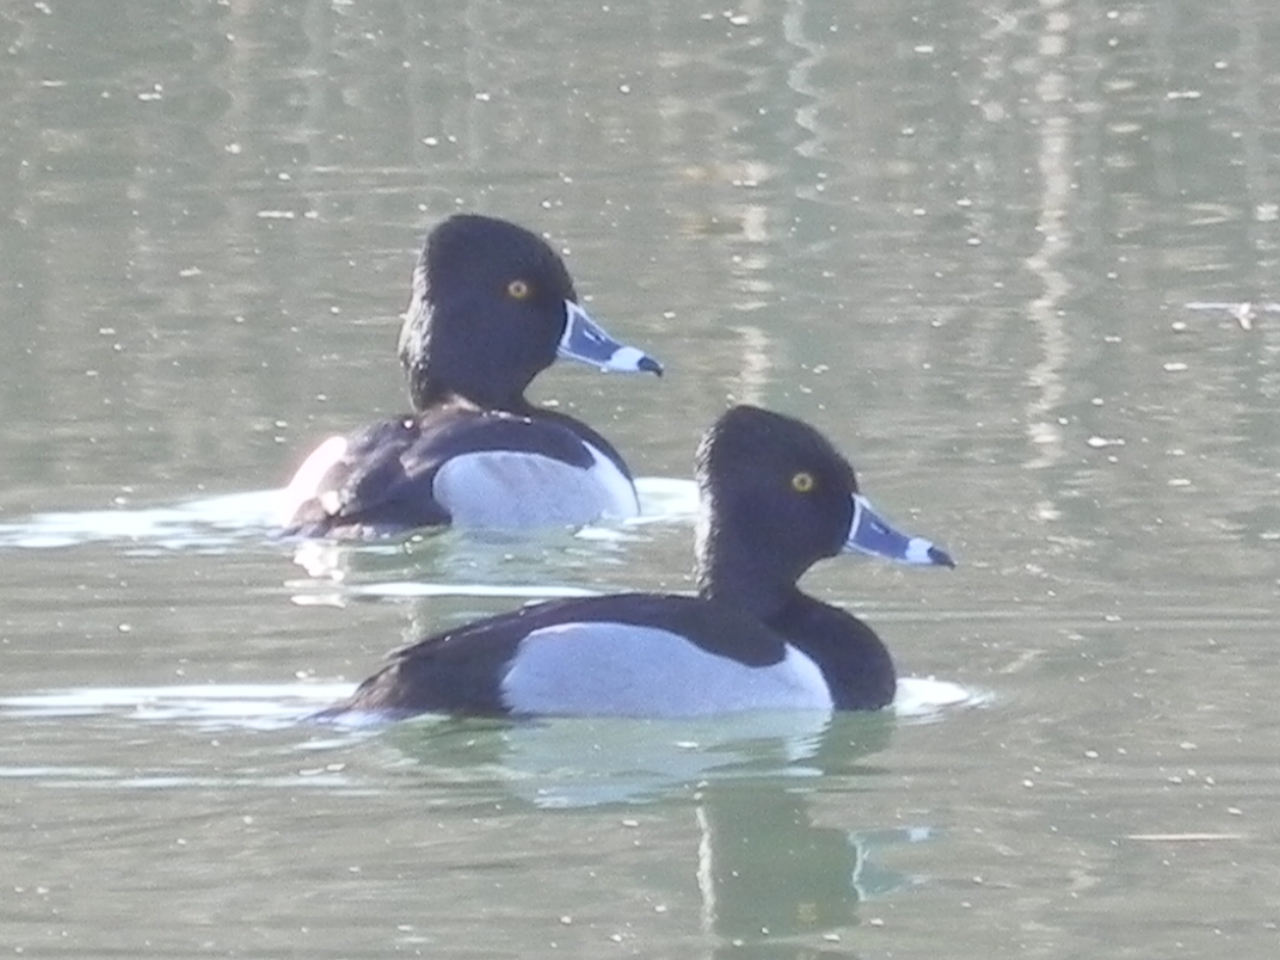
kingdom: Animalia
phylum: Chordata
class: Aves
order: Anseriformes
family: Anatidae
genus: Aythya
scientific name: Aythya collaris
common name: Ring-necked duck
